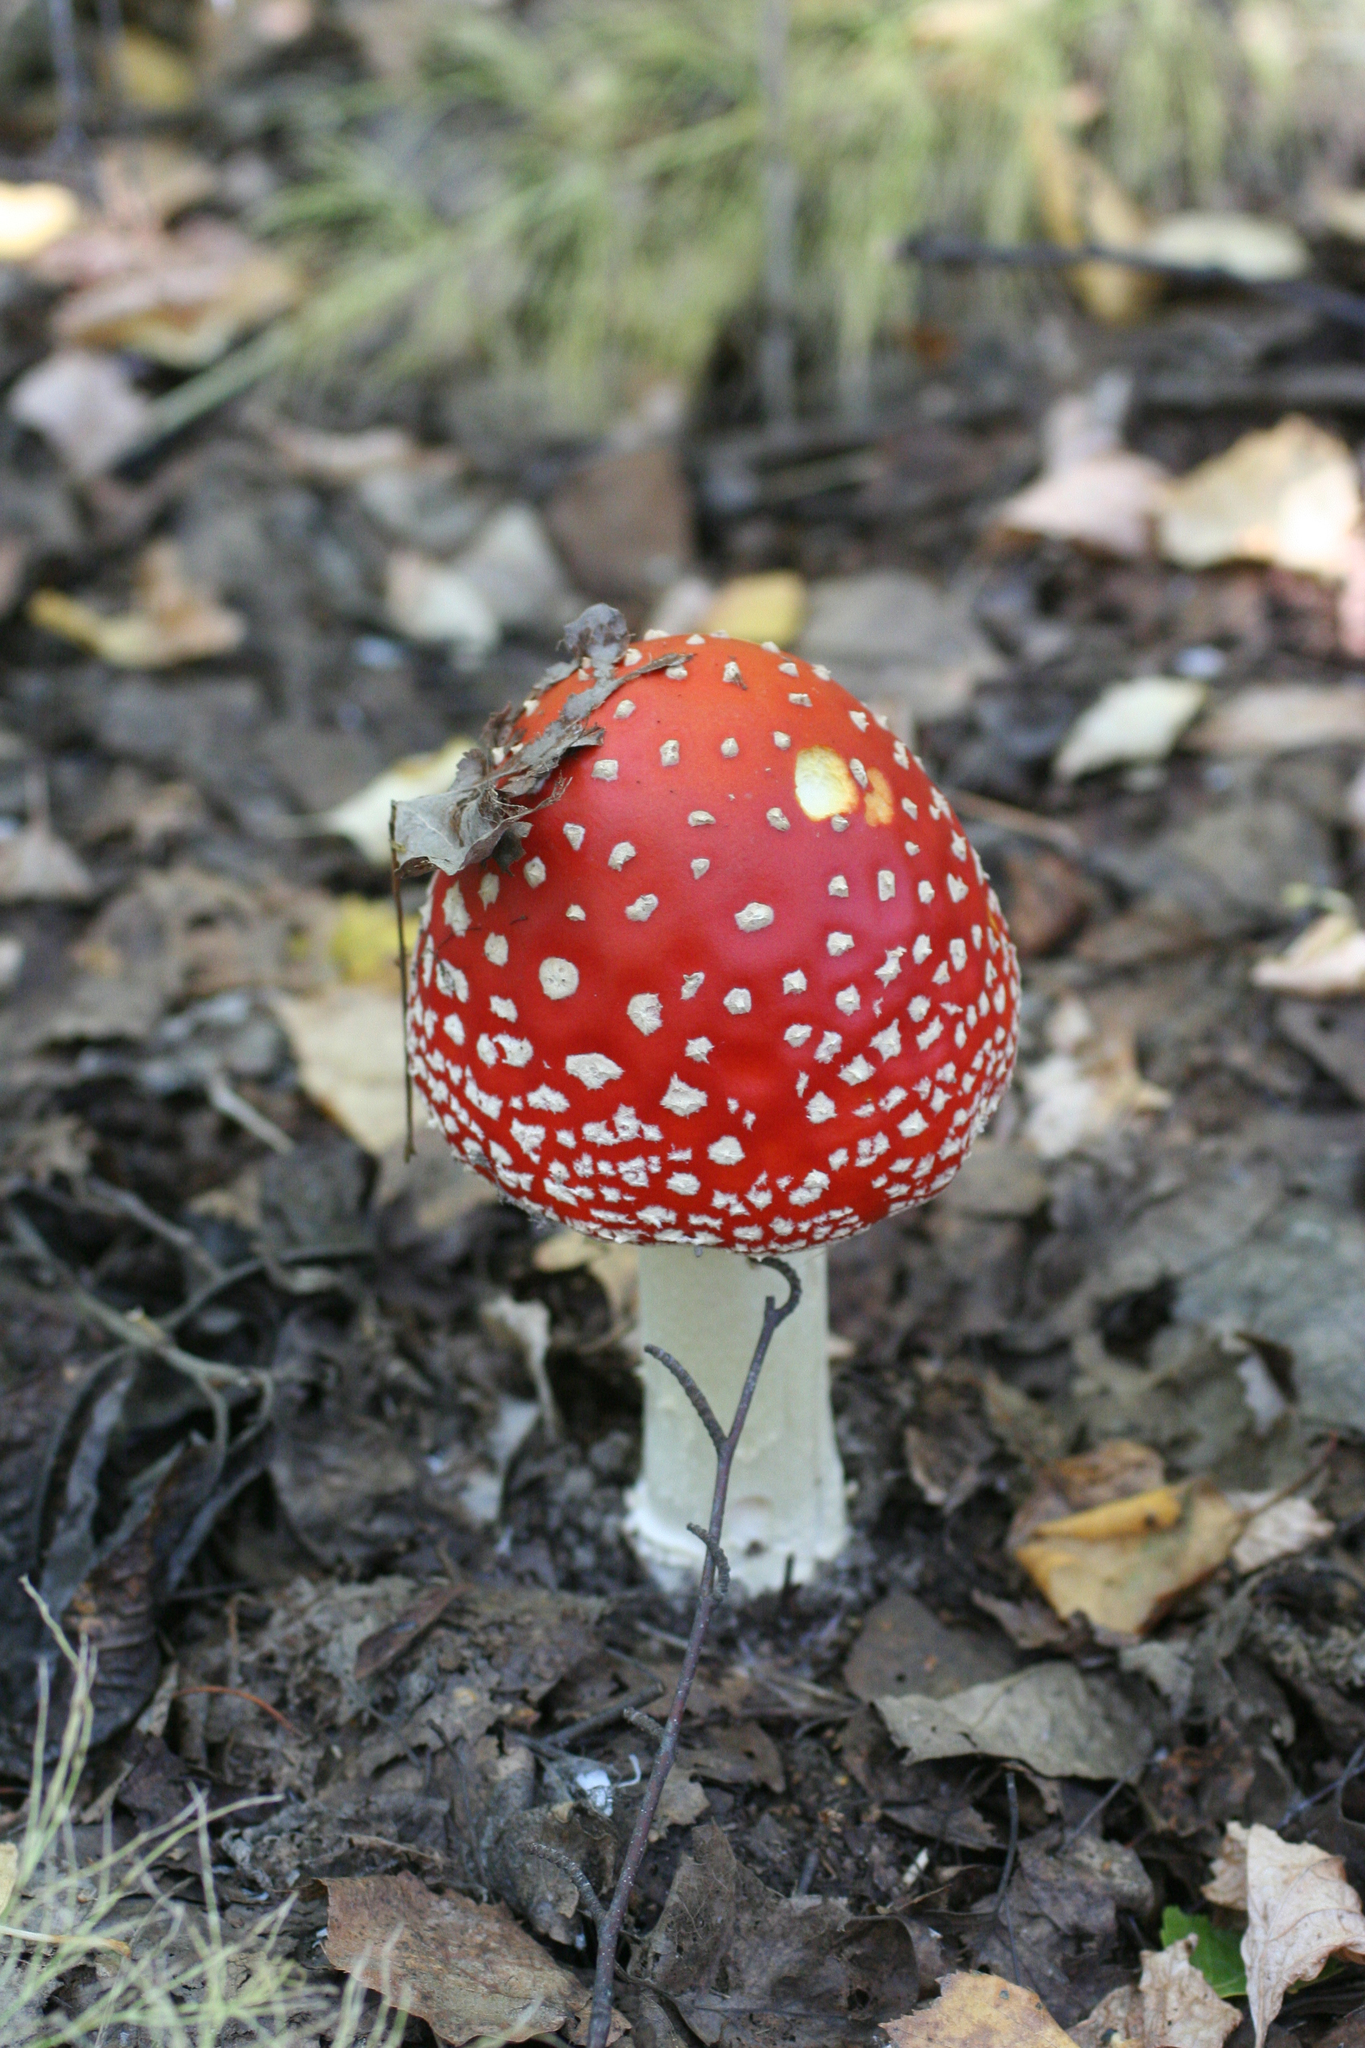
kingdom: Fungi
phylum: Basidiomycota
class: Agaricomycetes
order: Agaricales
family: Amanitaceae
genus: Amanita
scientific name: Amanita muscaria
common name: Fly agaric
